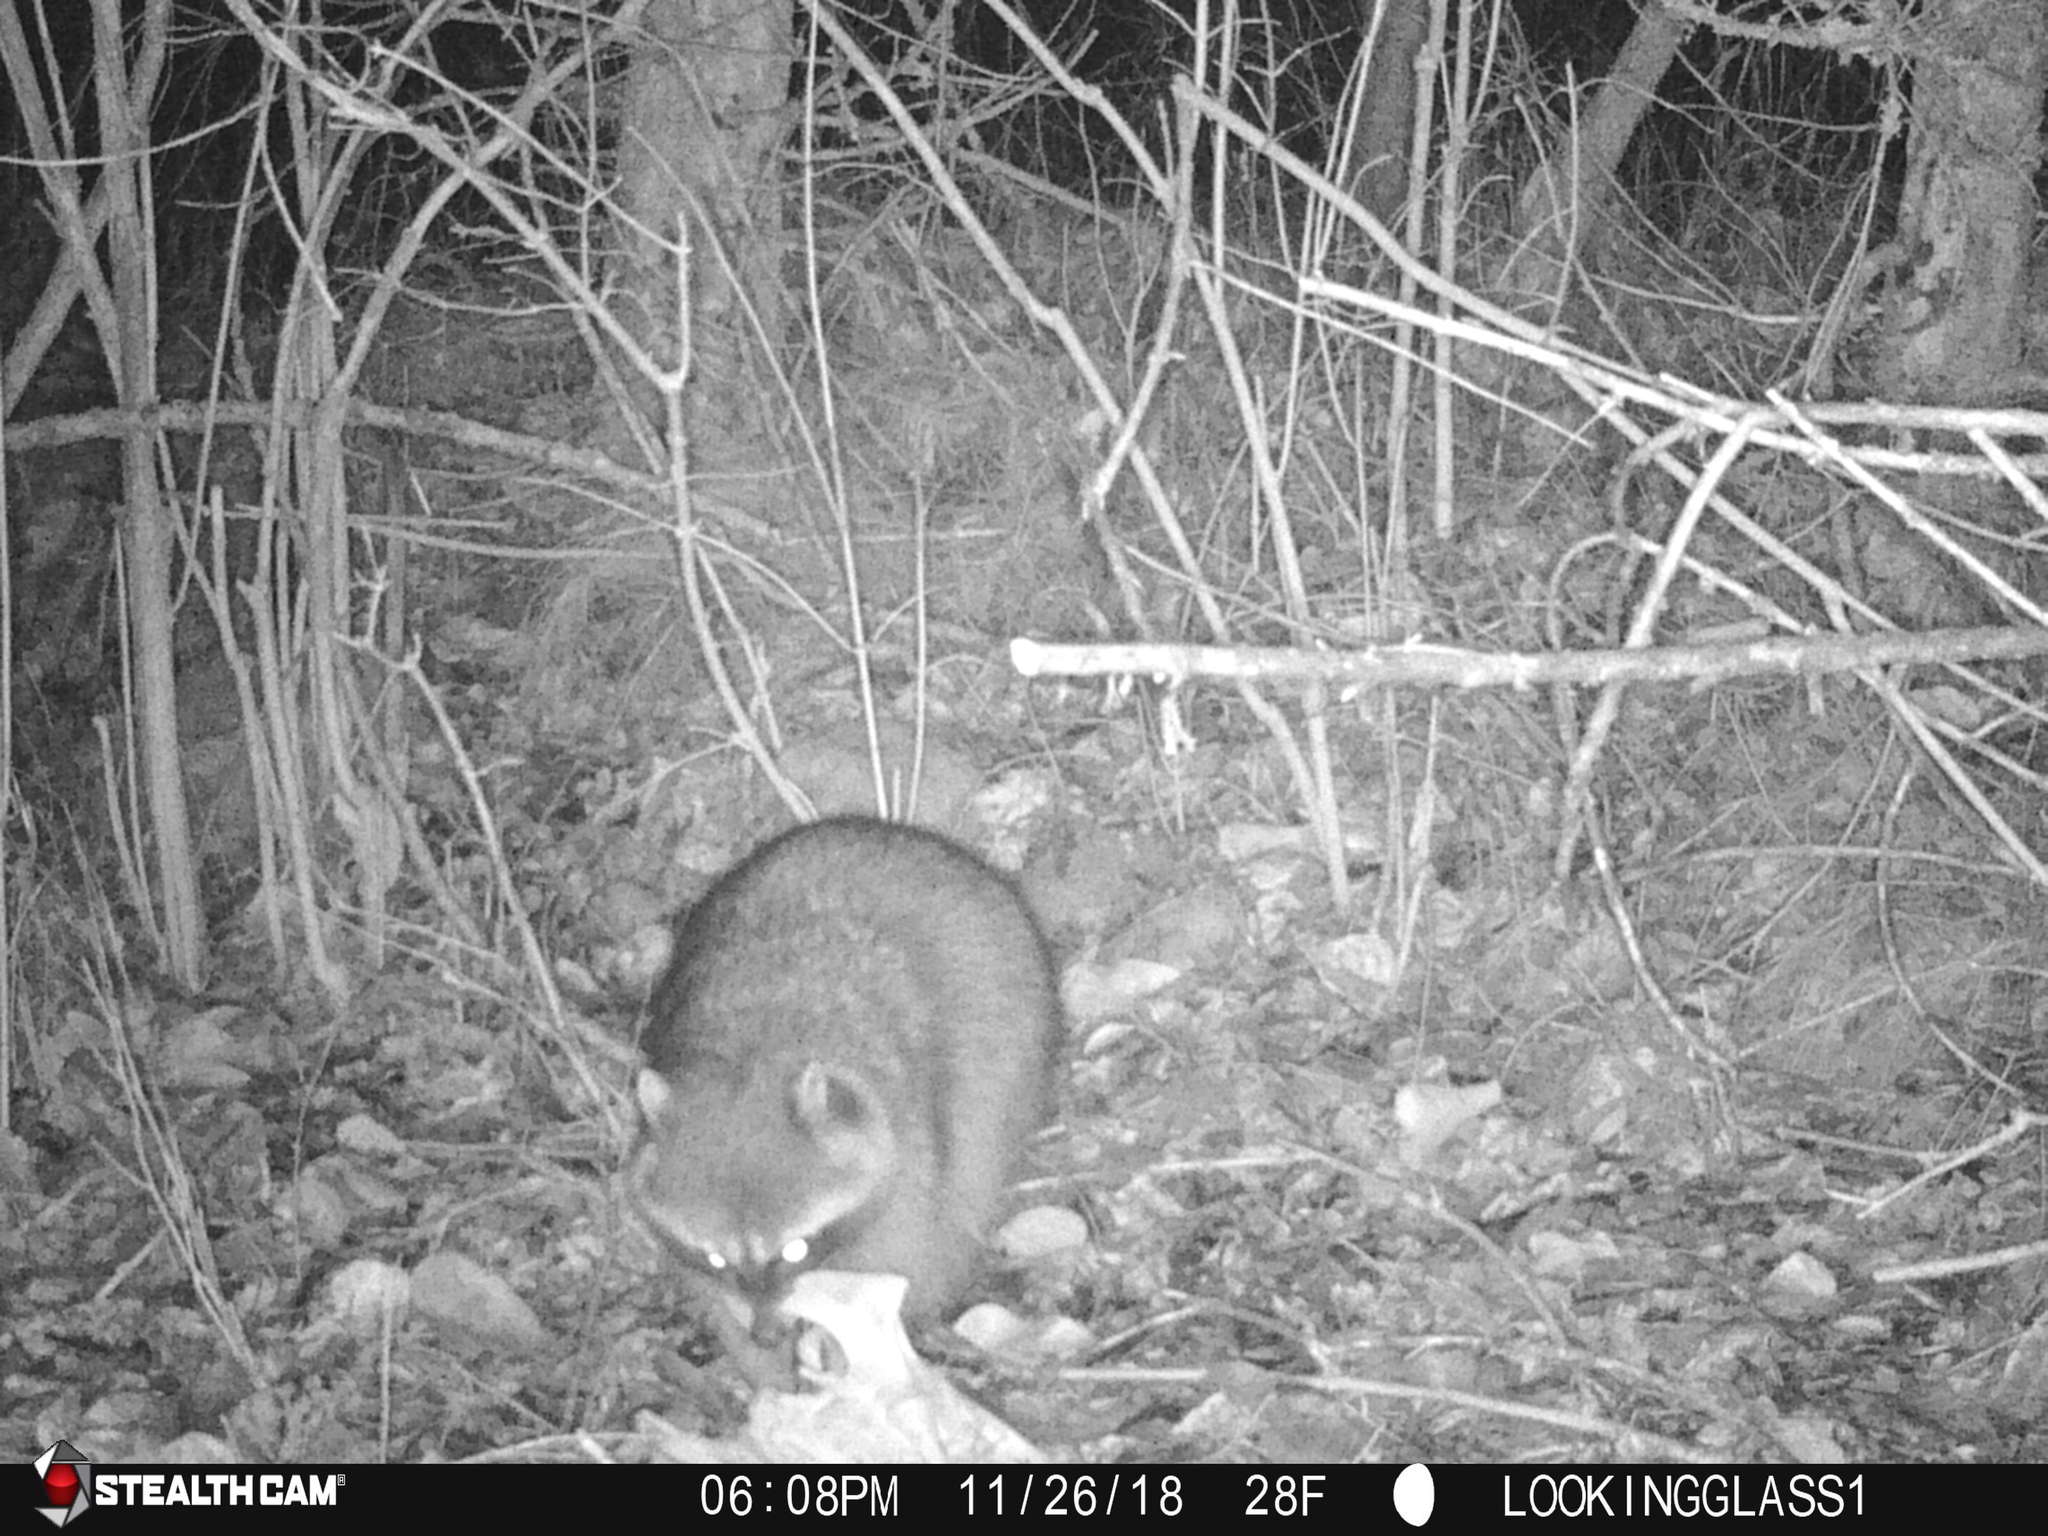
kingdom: Animalia
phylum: Chordata
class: Mammalia
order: Carnivora
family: Procyonidae
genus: Procyon
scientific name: Procyon lotor
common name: Raccoon
